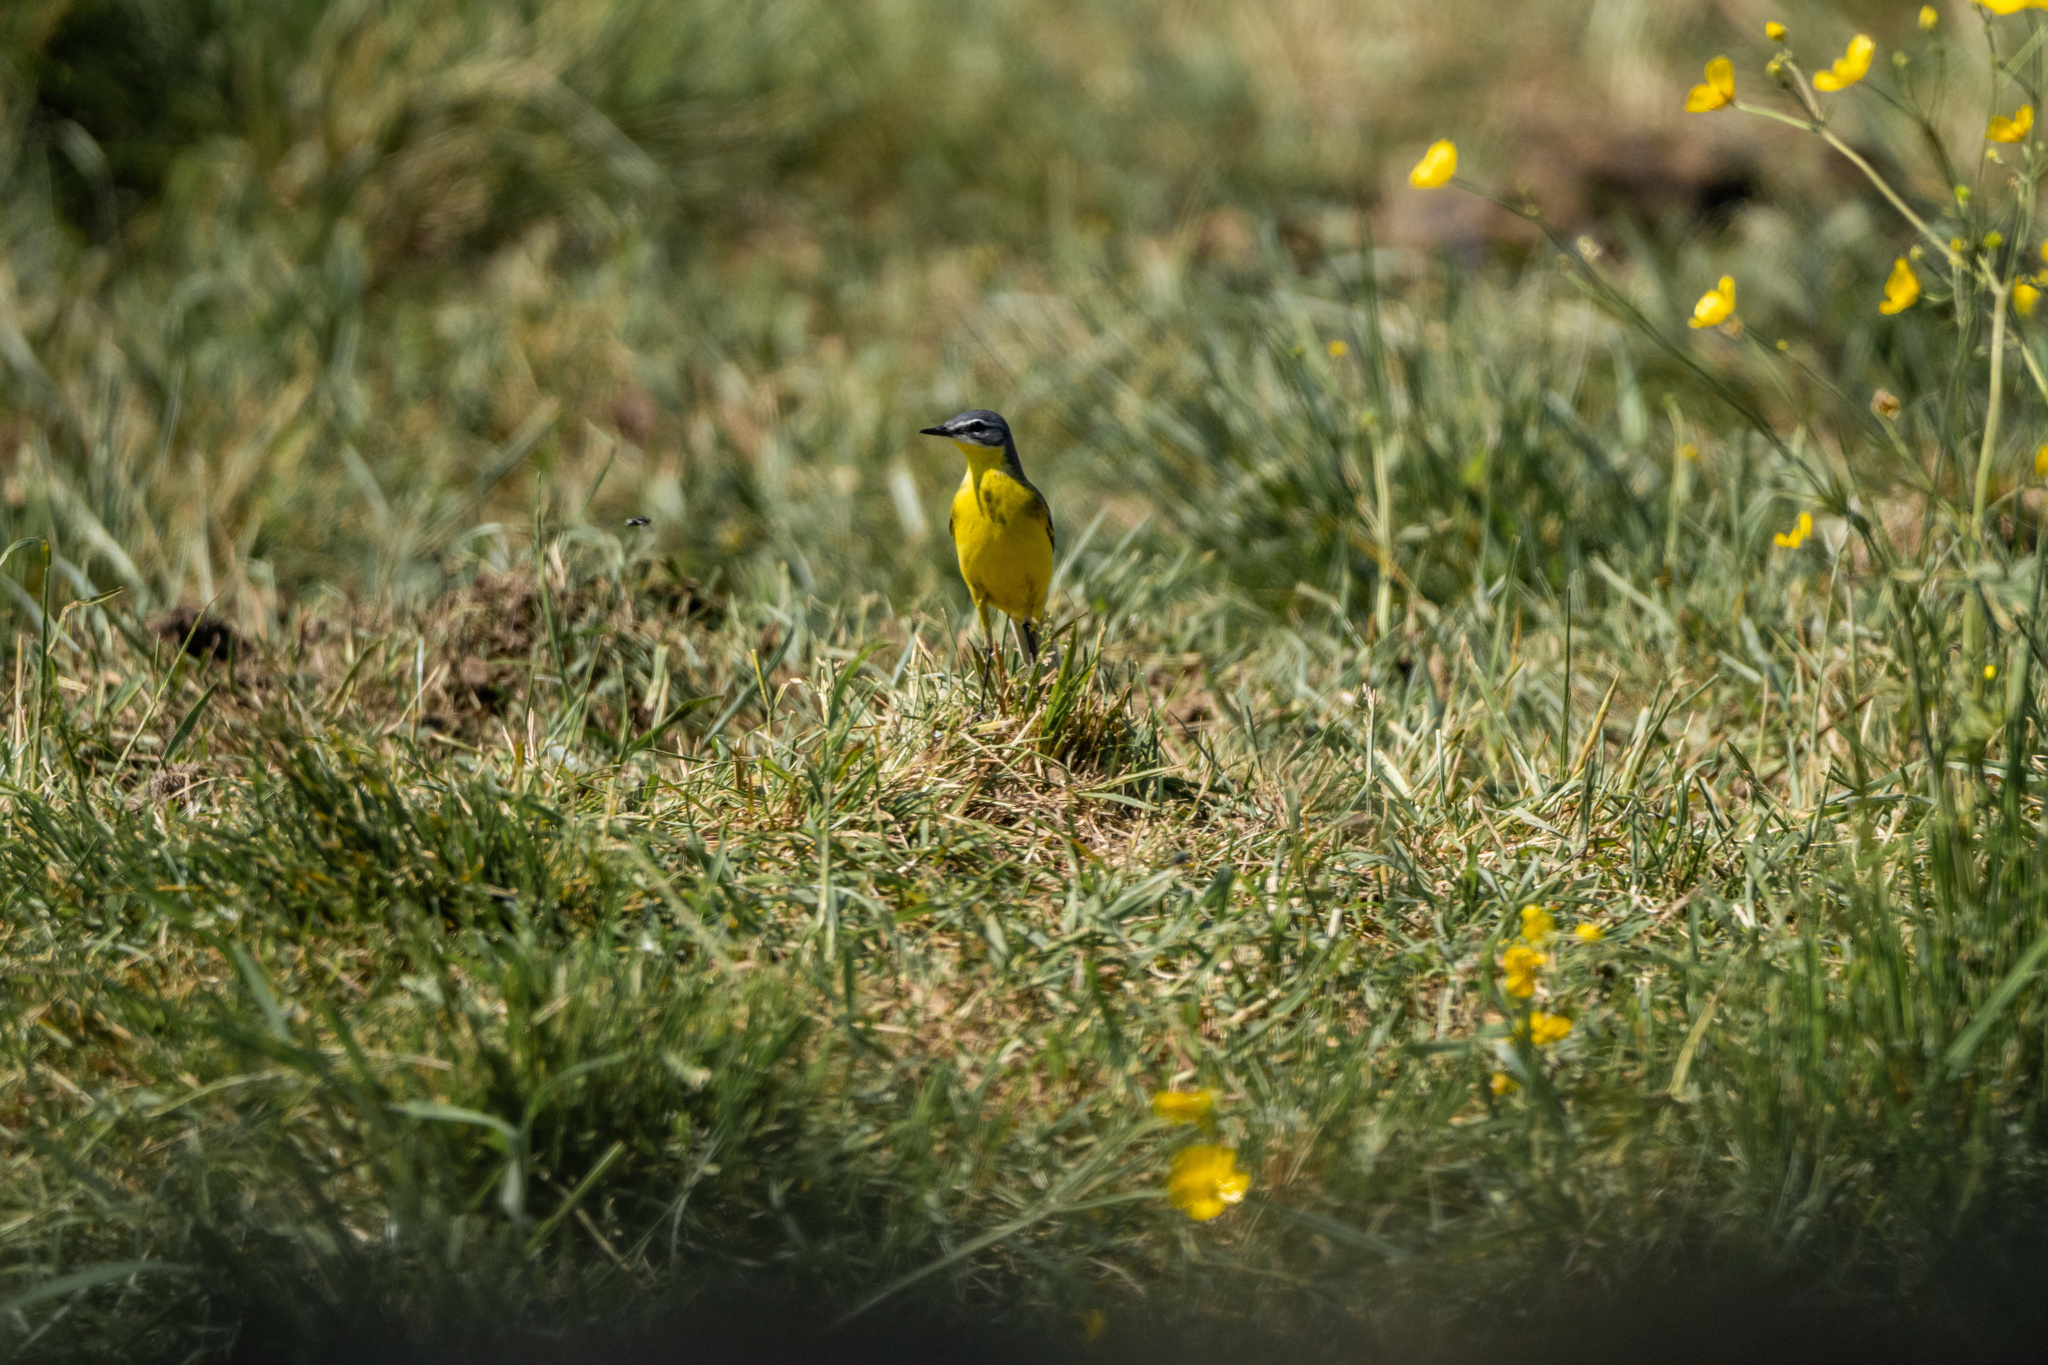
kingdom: Animalia
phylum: Chordata
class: Aves
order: Passeriformes
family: Motacillidae
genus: Motacilla
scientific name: Motacilla flava
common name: Western yellow wagtail
